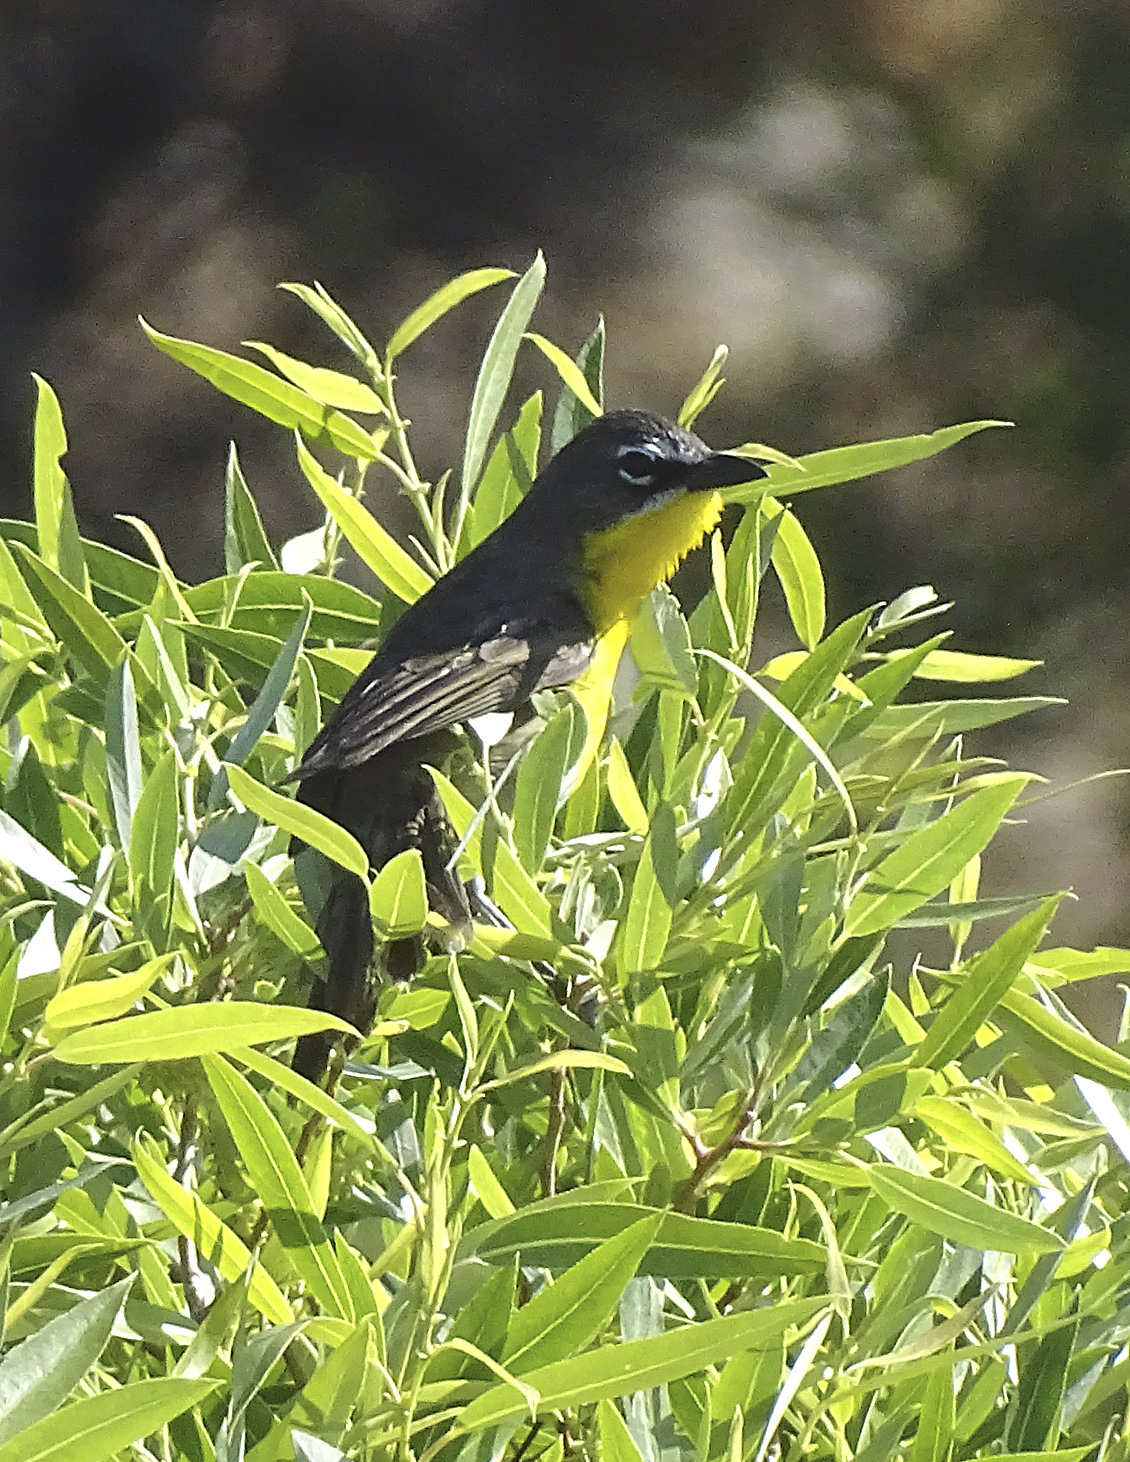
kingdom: Animalia
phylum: Chordata
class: Aves
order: Passeriformes
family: Parulidae
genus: Icteria
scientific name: Icteria virens
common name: Yellow-breasted chat
